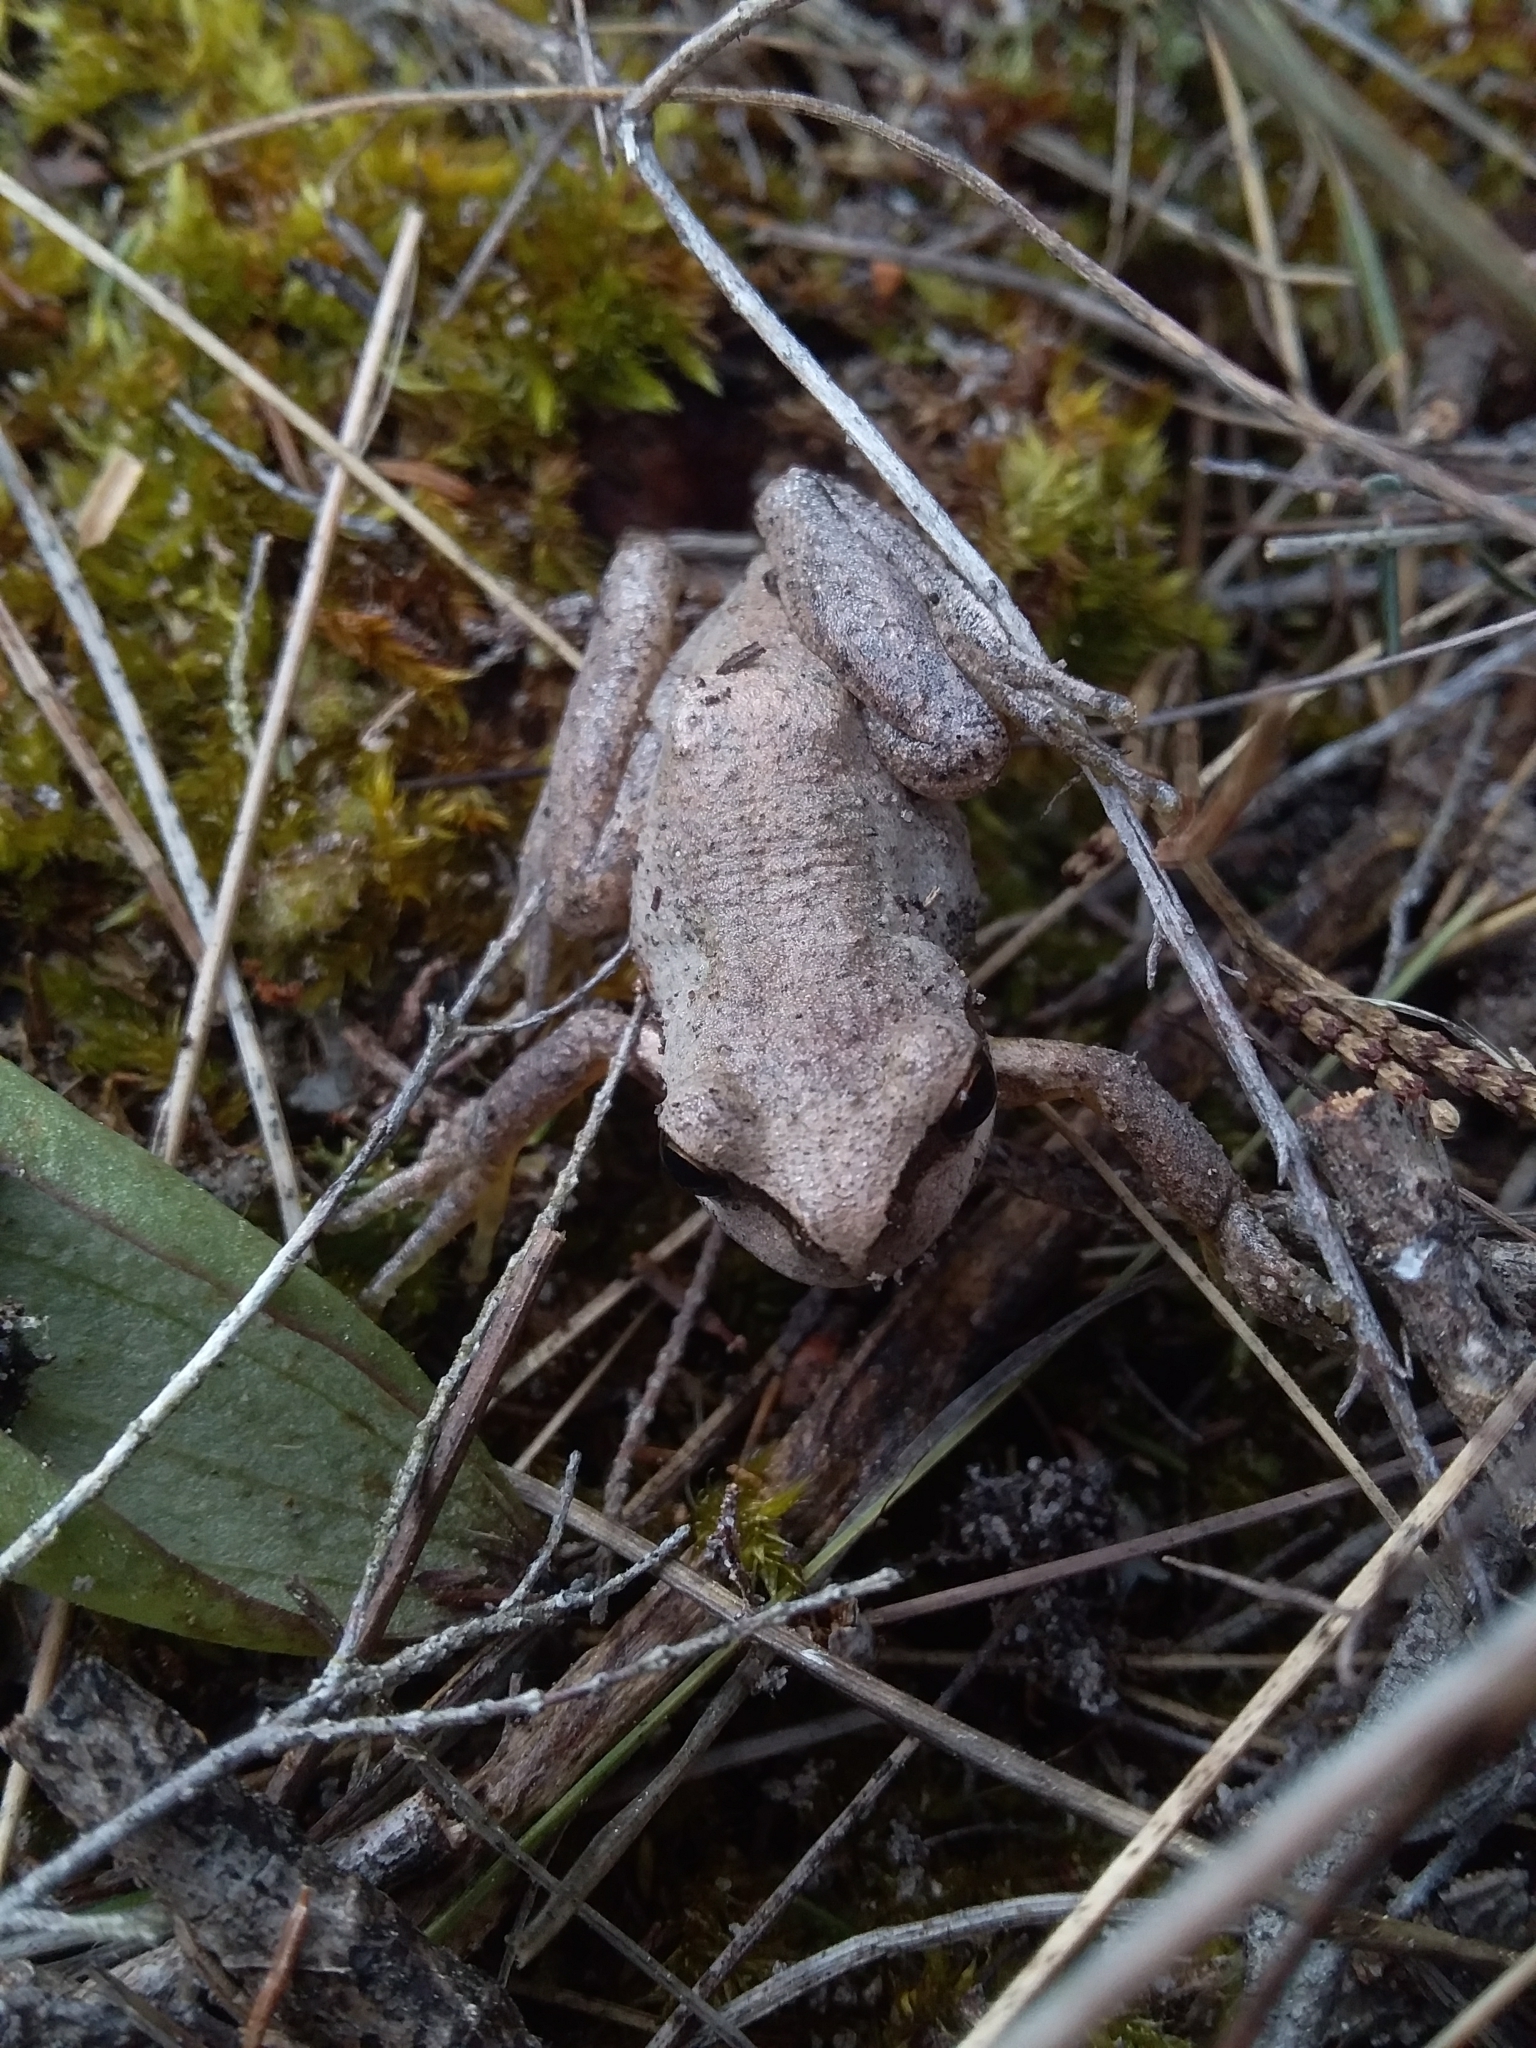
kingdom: Animalia
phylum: Chordata
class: Amphibia
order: Anura
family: Pelodryadidae
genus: Litoria
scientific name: Litoria
